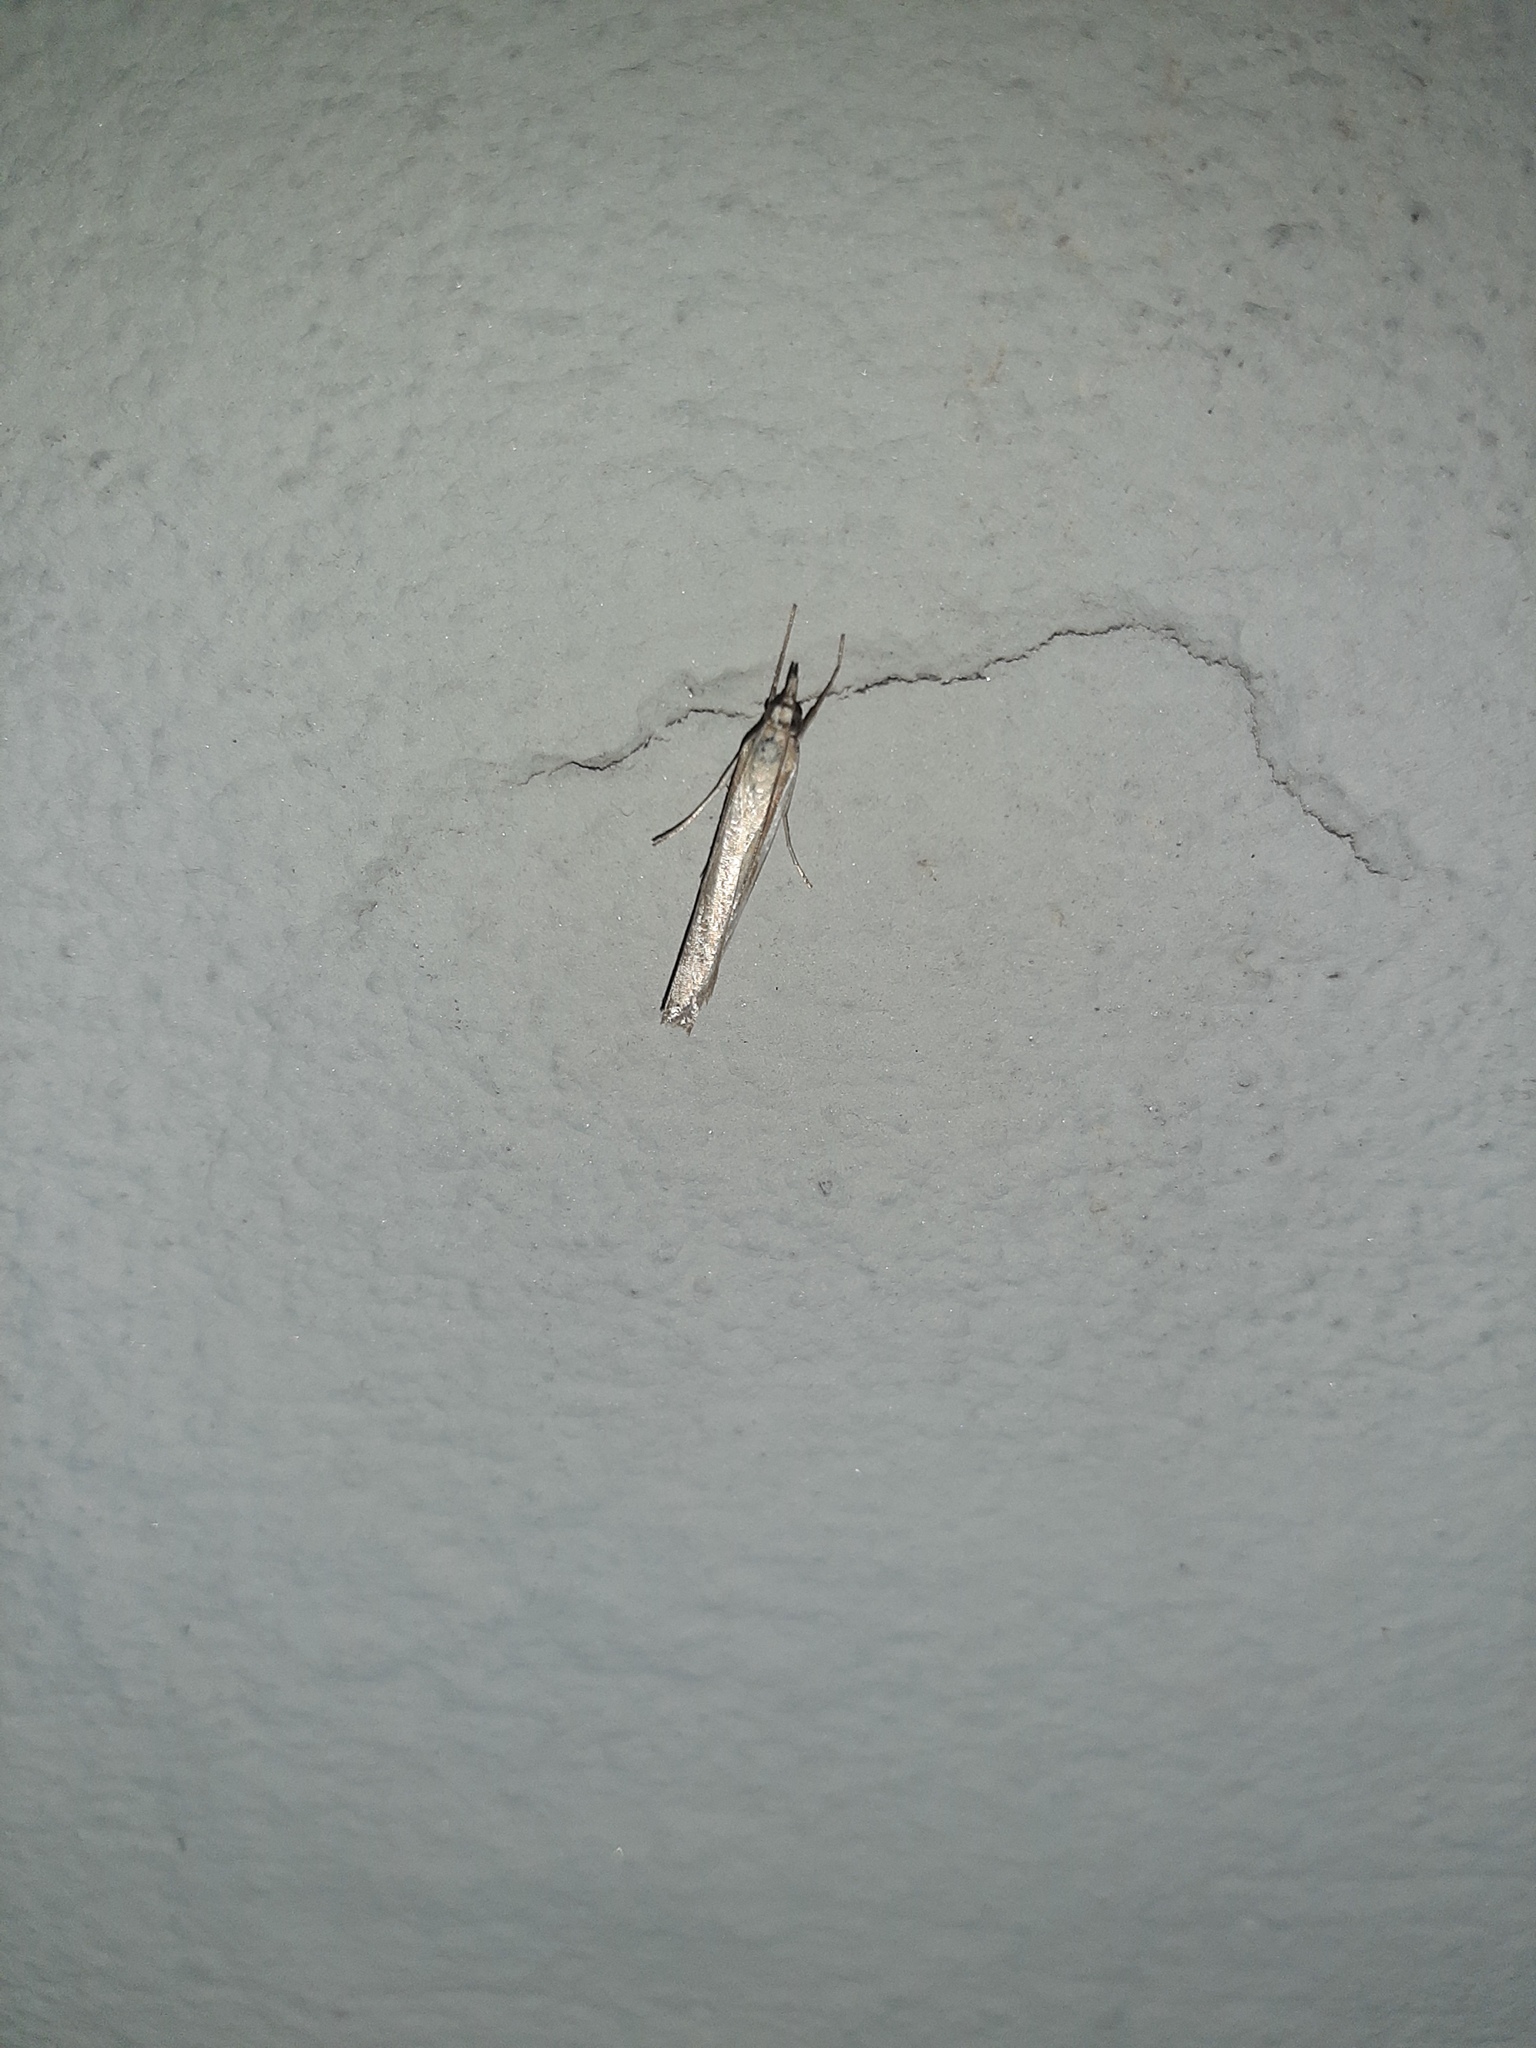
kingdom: Animalia
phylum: Arthropoda
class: Insecta
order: Lepidoptera
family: Crambidae
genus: Agriphila
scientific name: Agriphila tristellus
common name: Common grass-veneer
